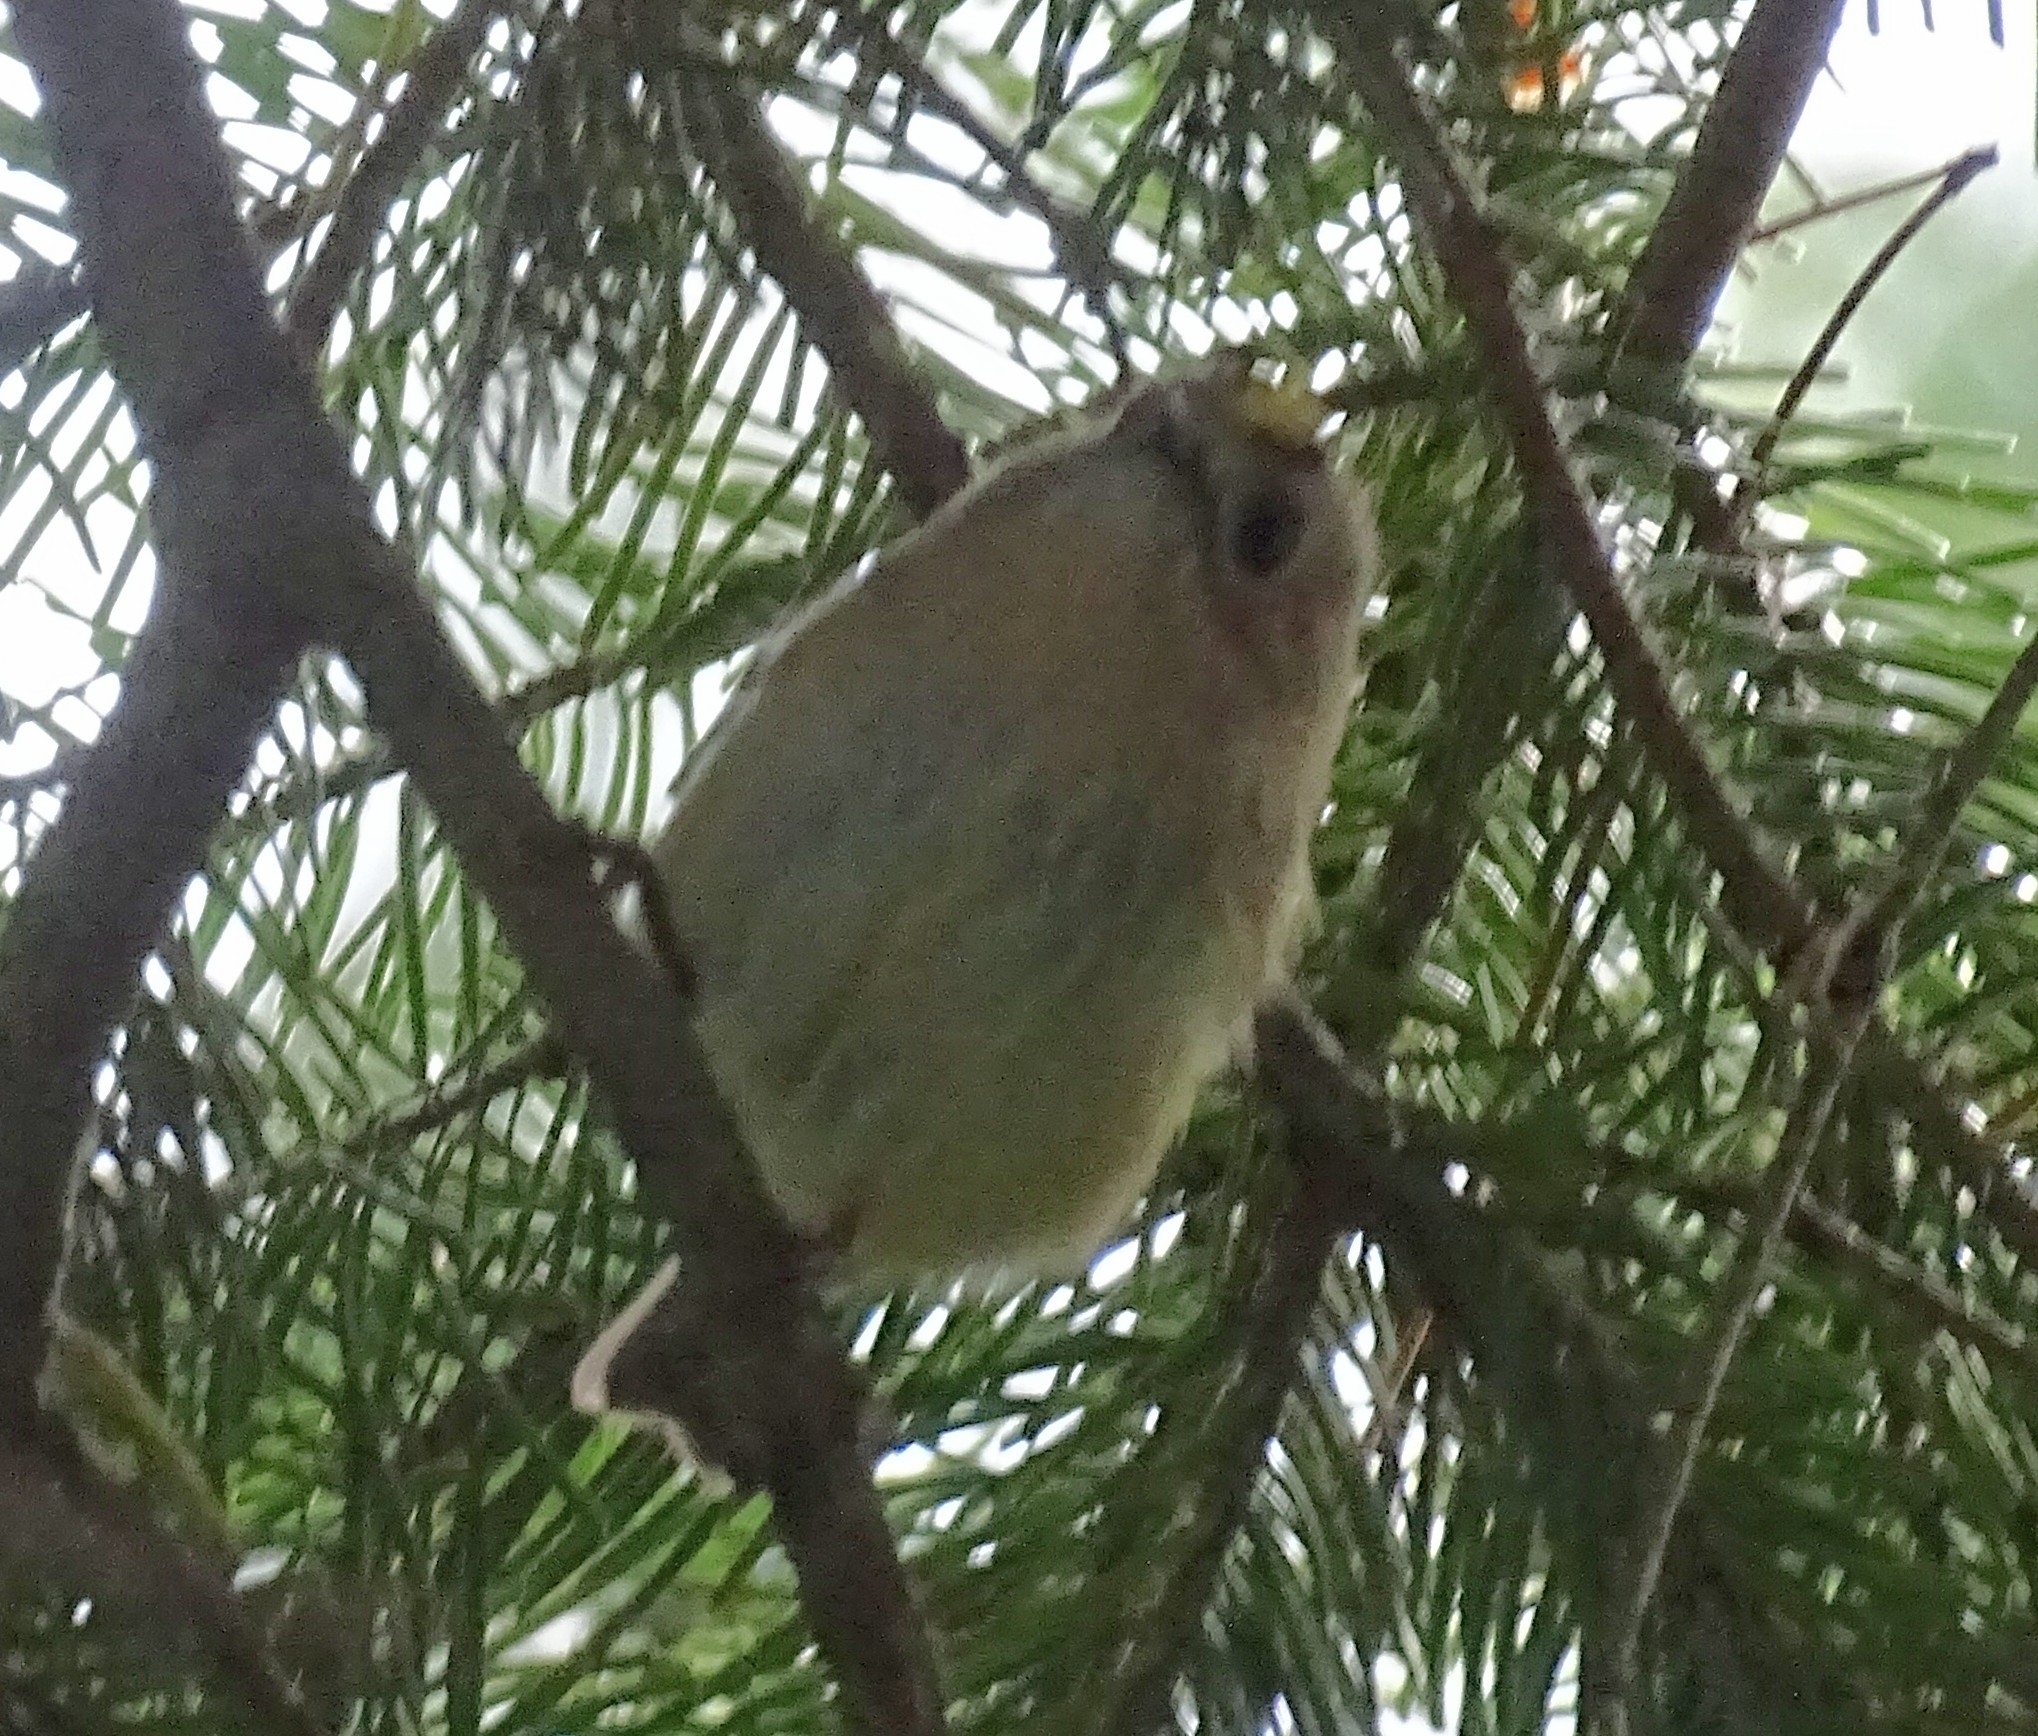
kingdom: Animalia
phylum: Chordata
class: Aves
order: Passeriformes
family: Regulidae
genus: Regulus
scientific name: Regulus regulus
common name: Goldcrest
